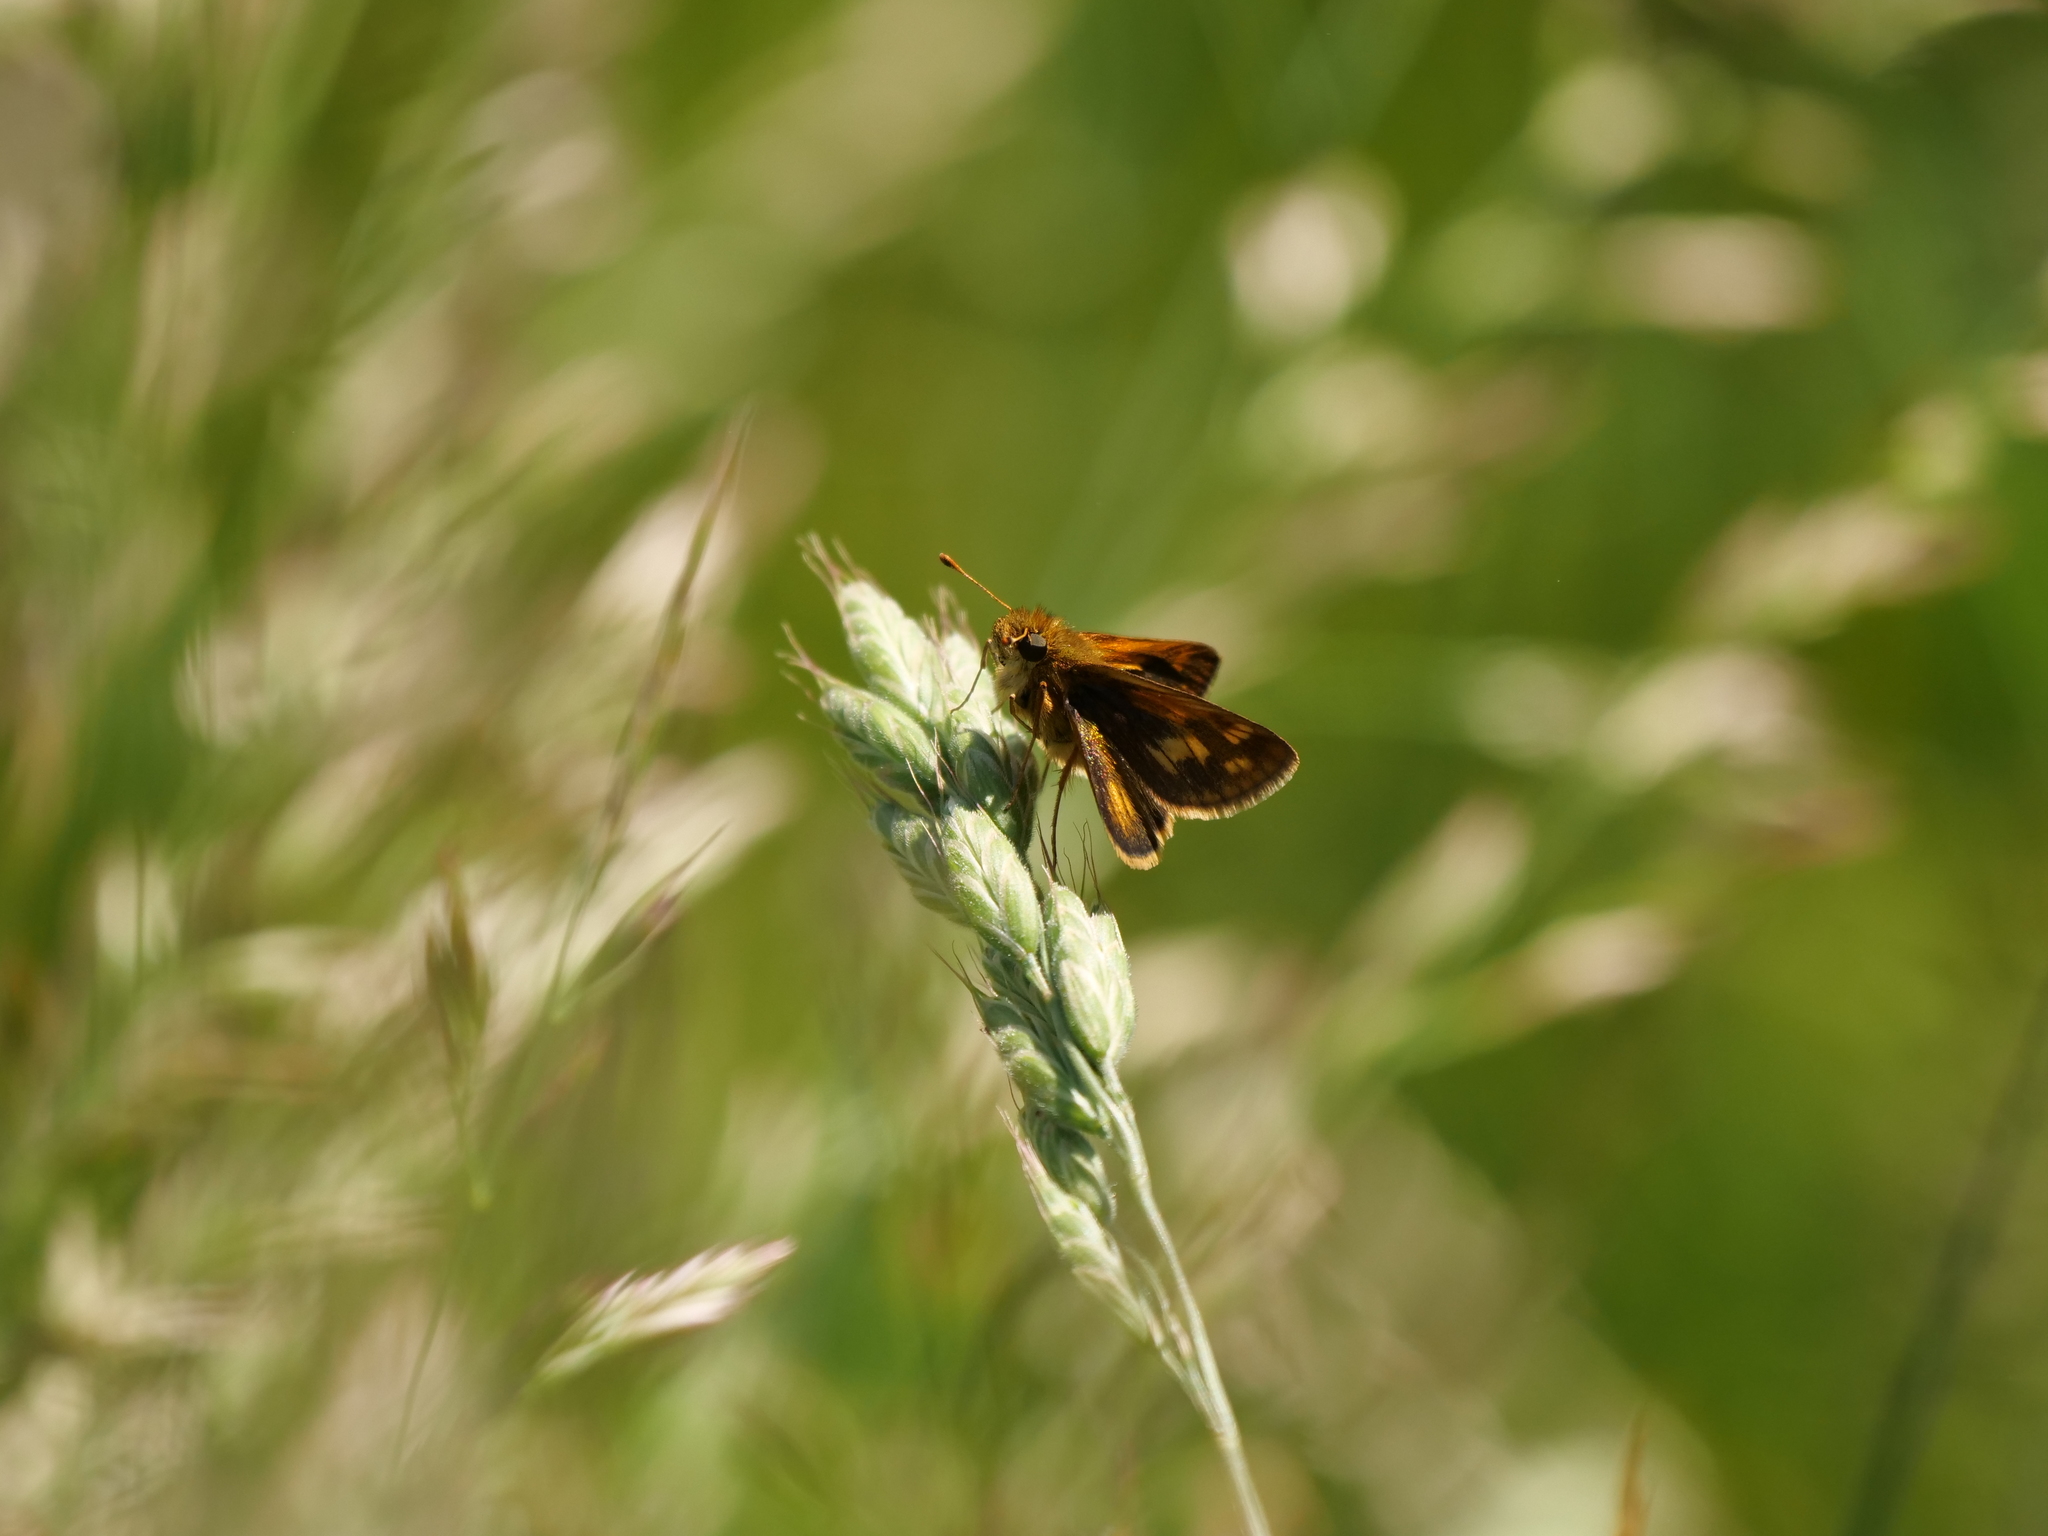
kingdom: Animalia
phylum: Arthropoda
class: Insecta
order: Lepidoptera
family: Hesperiidae
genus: Polites
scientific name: Polites coras
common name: Peck's skipper
